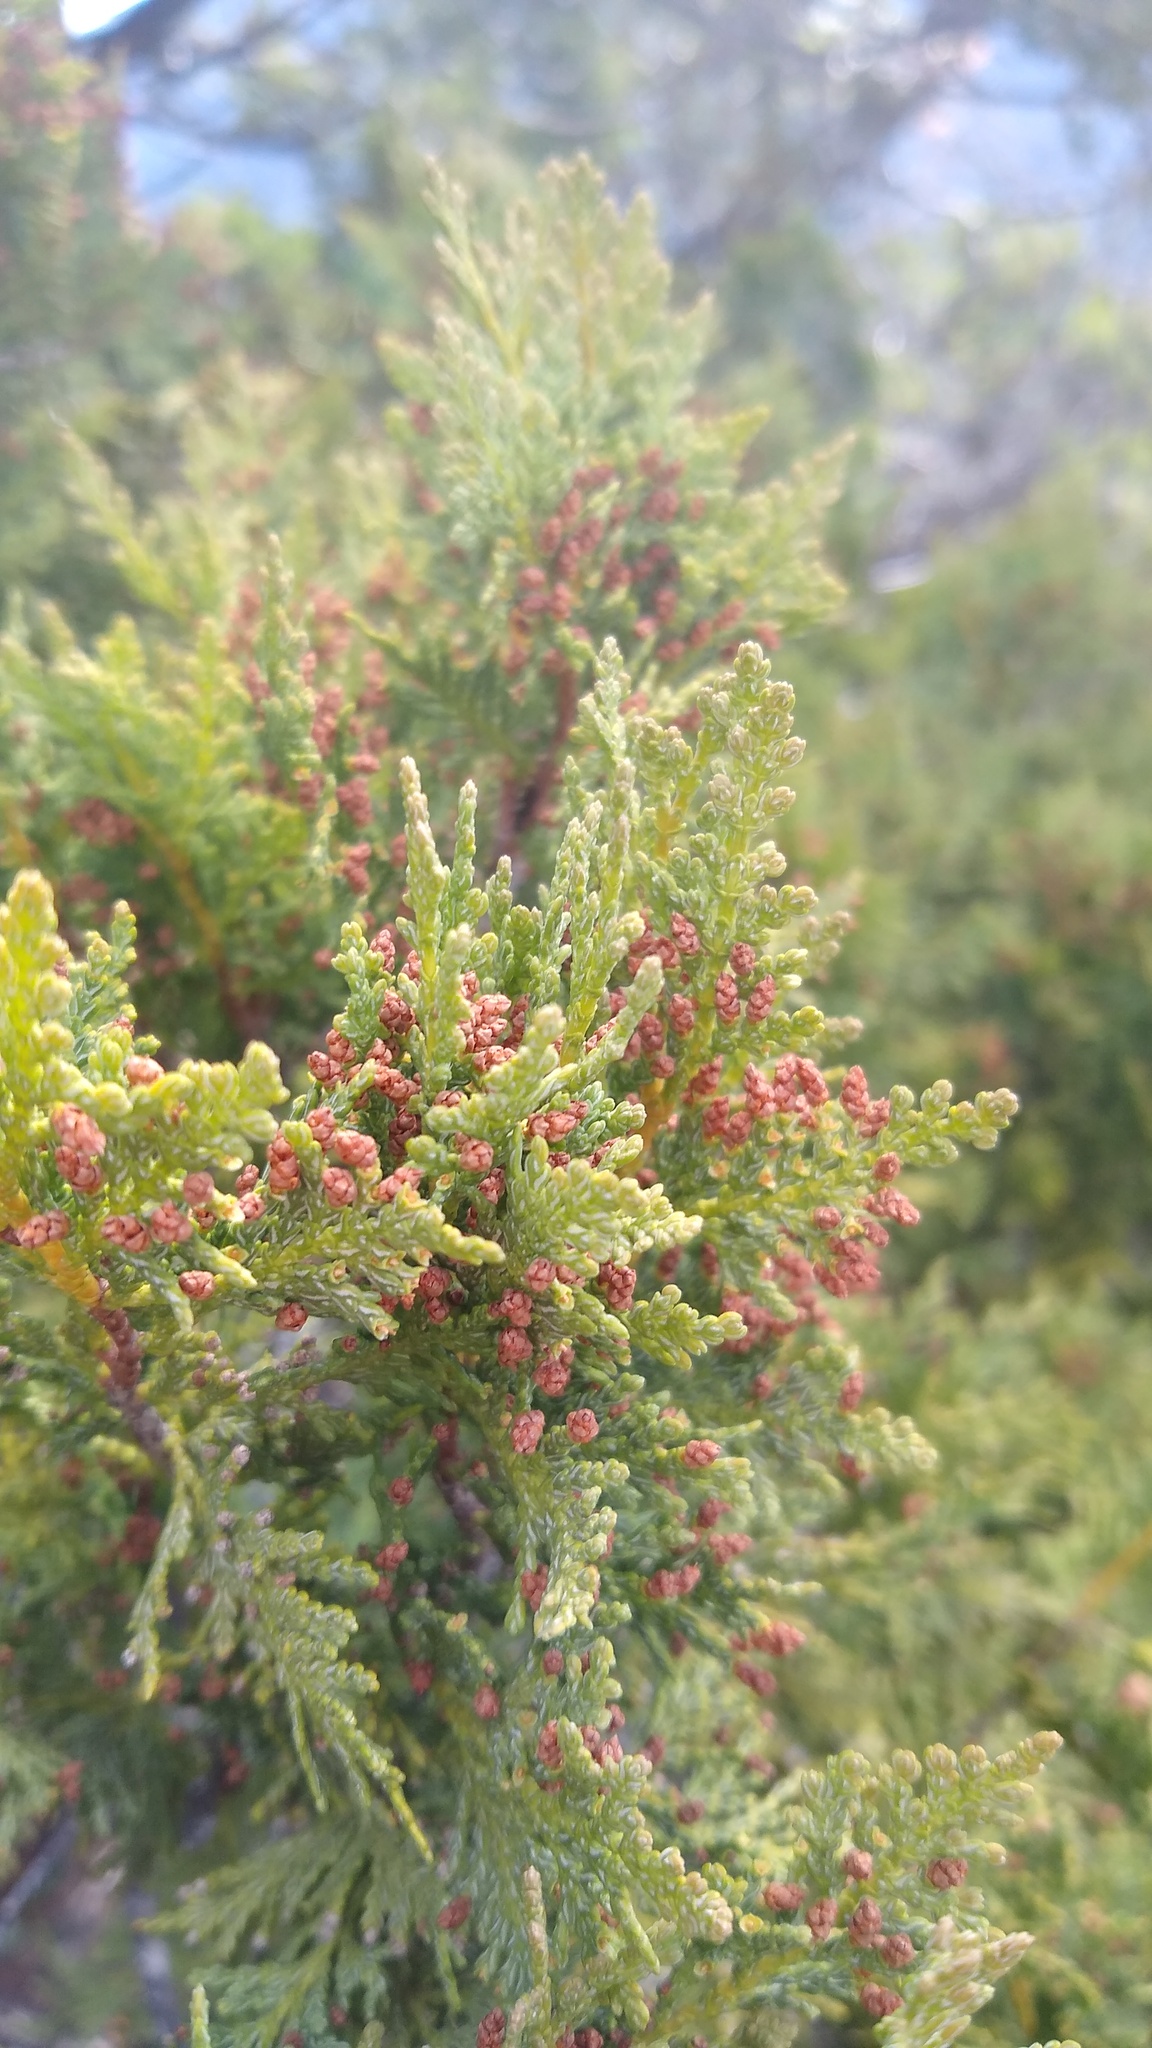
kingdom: Plantae
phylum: Tracheophyta
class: Pinopsida
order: Pinales
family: Cupressaceae
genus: Austrocedrus
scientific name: Austrocedrus chilensis
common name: Chilean incense-cedar
